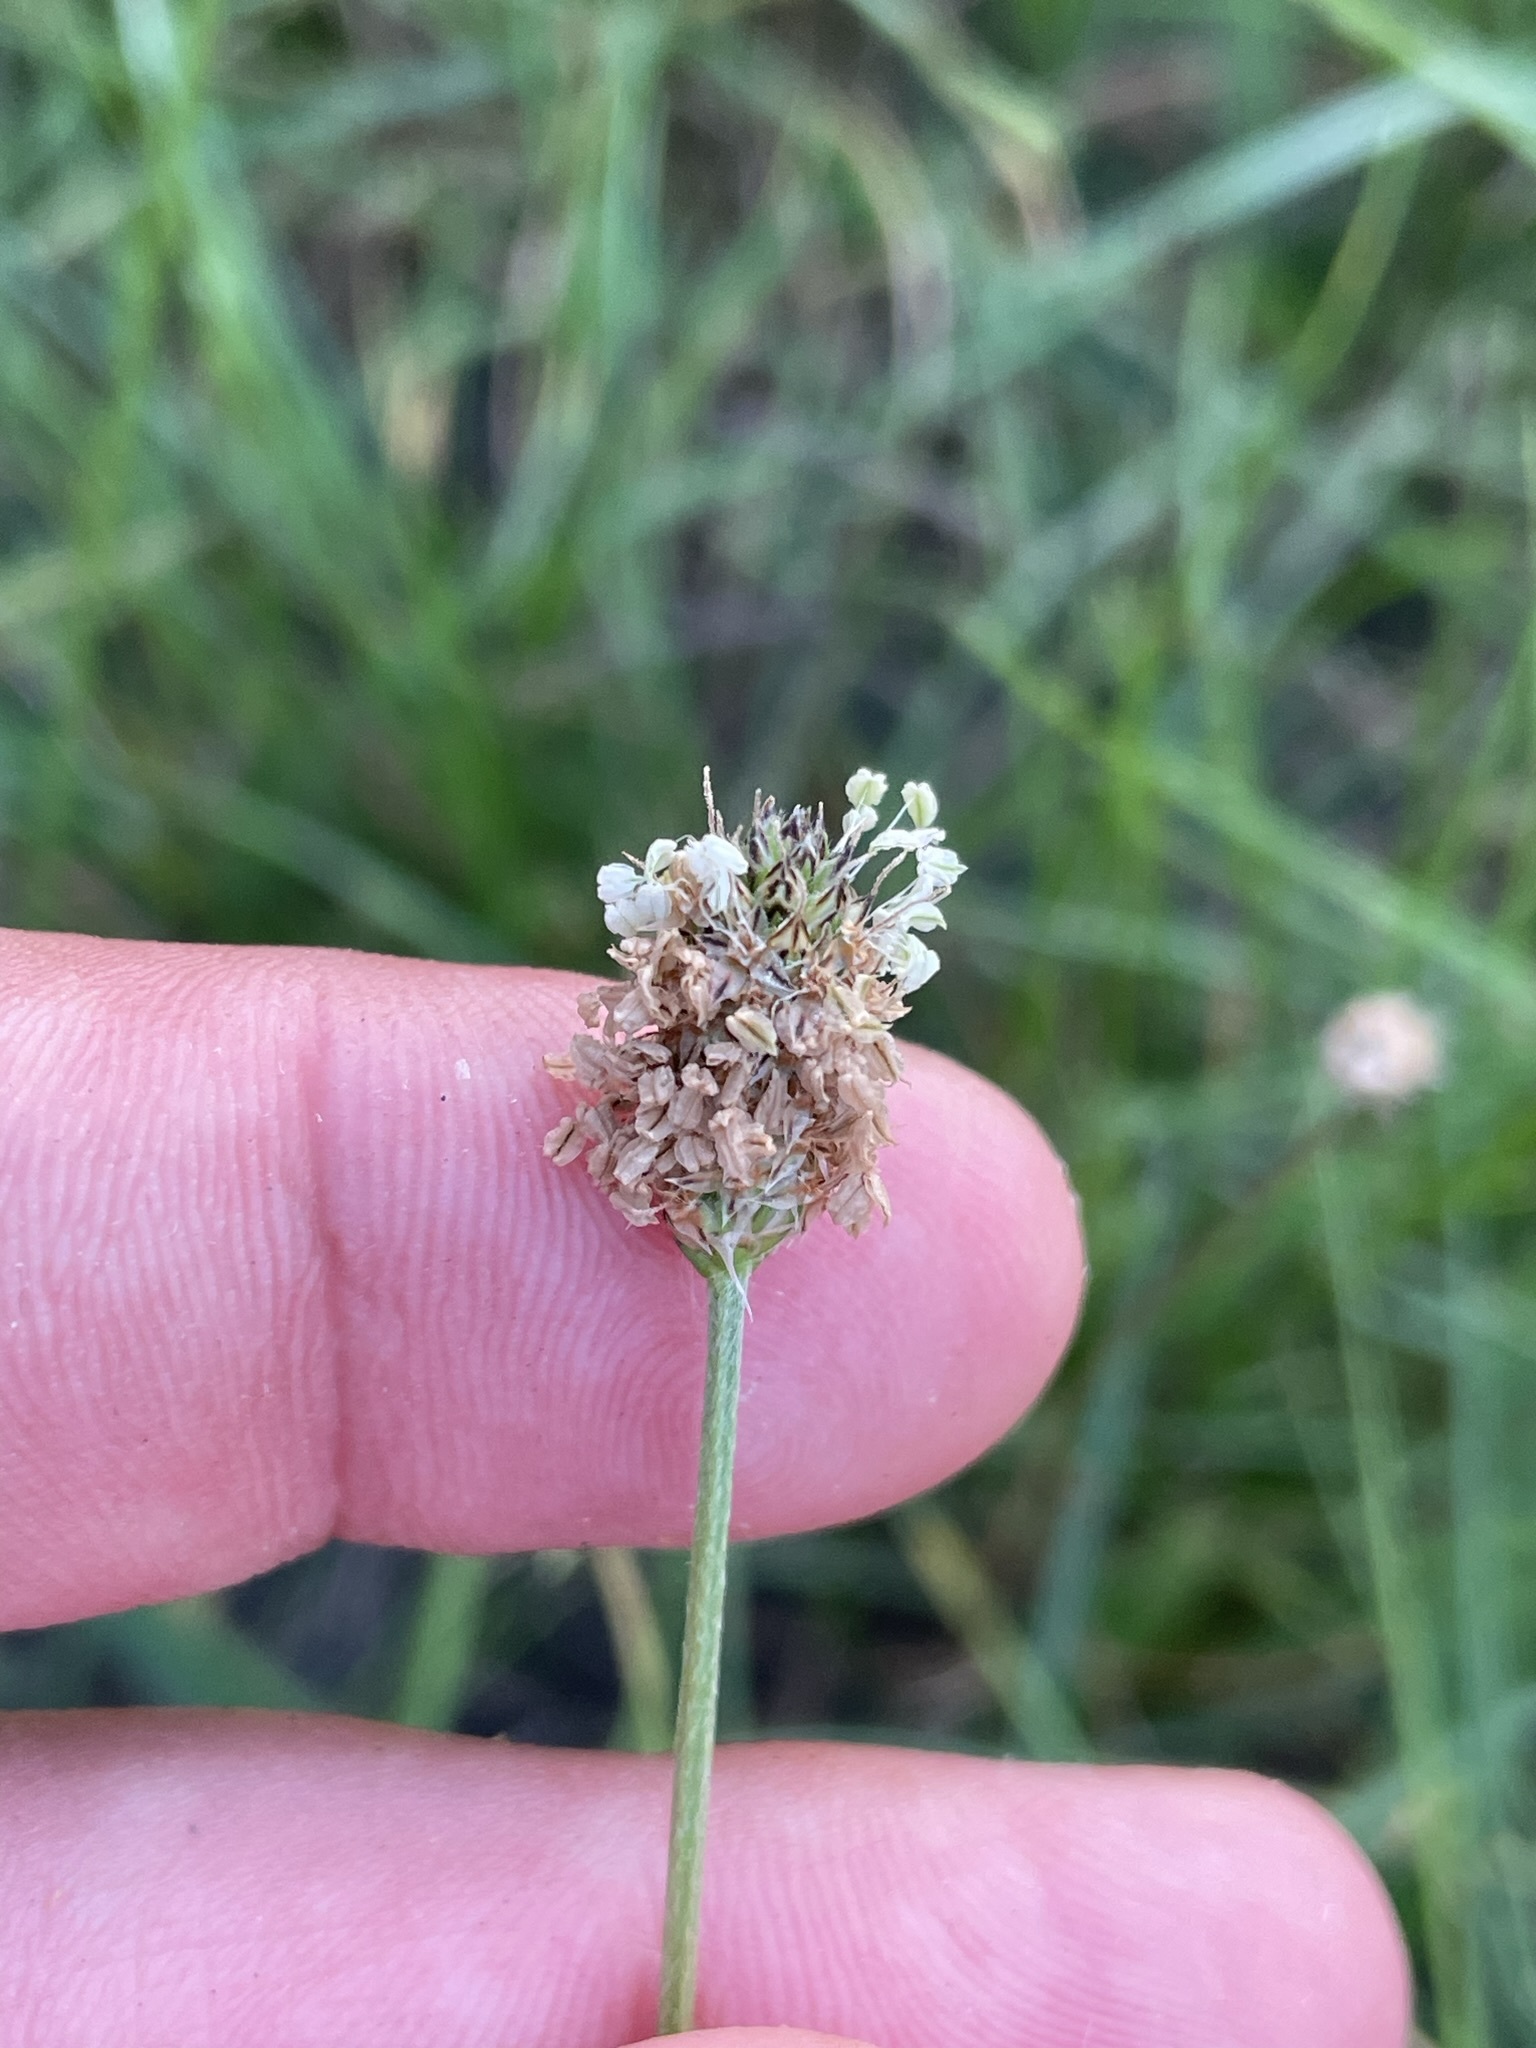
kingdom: Plantae
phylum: Tracheophyta
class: Magnoliopsida
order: Lamiales
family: Plantaginaceae
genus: Plantago
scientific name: Plantago lanceolata
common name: Ribwort plantain
